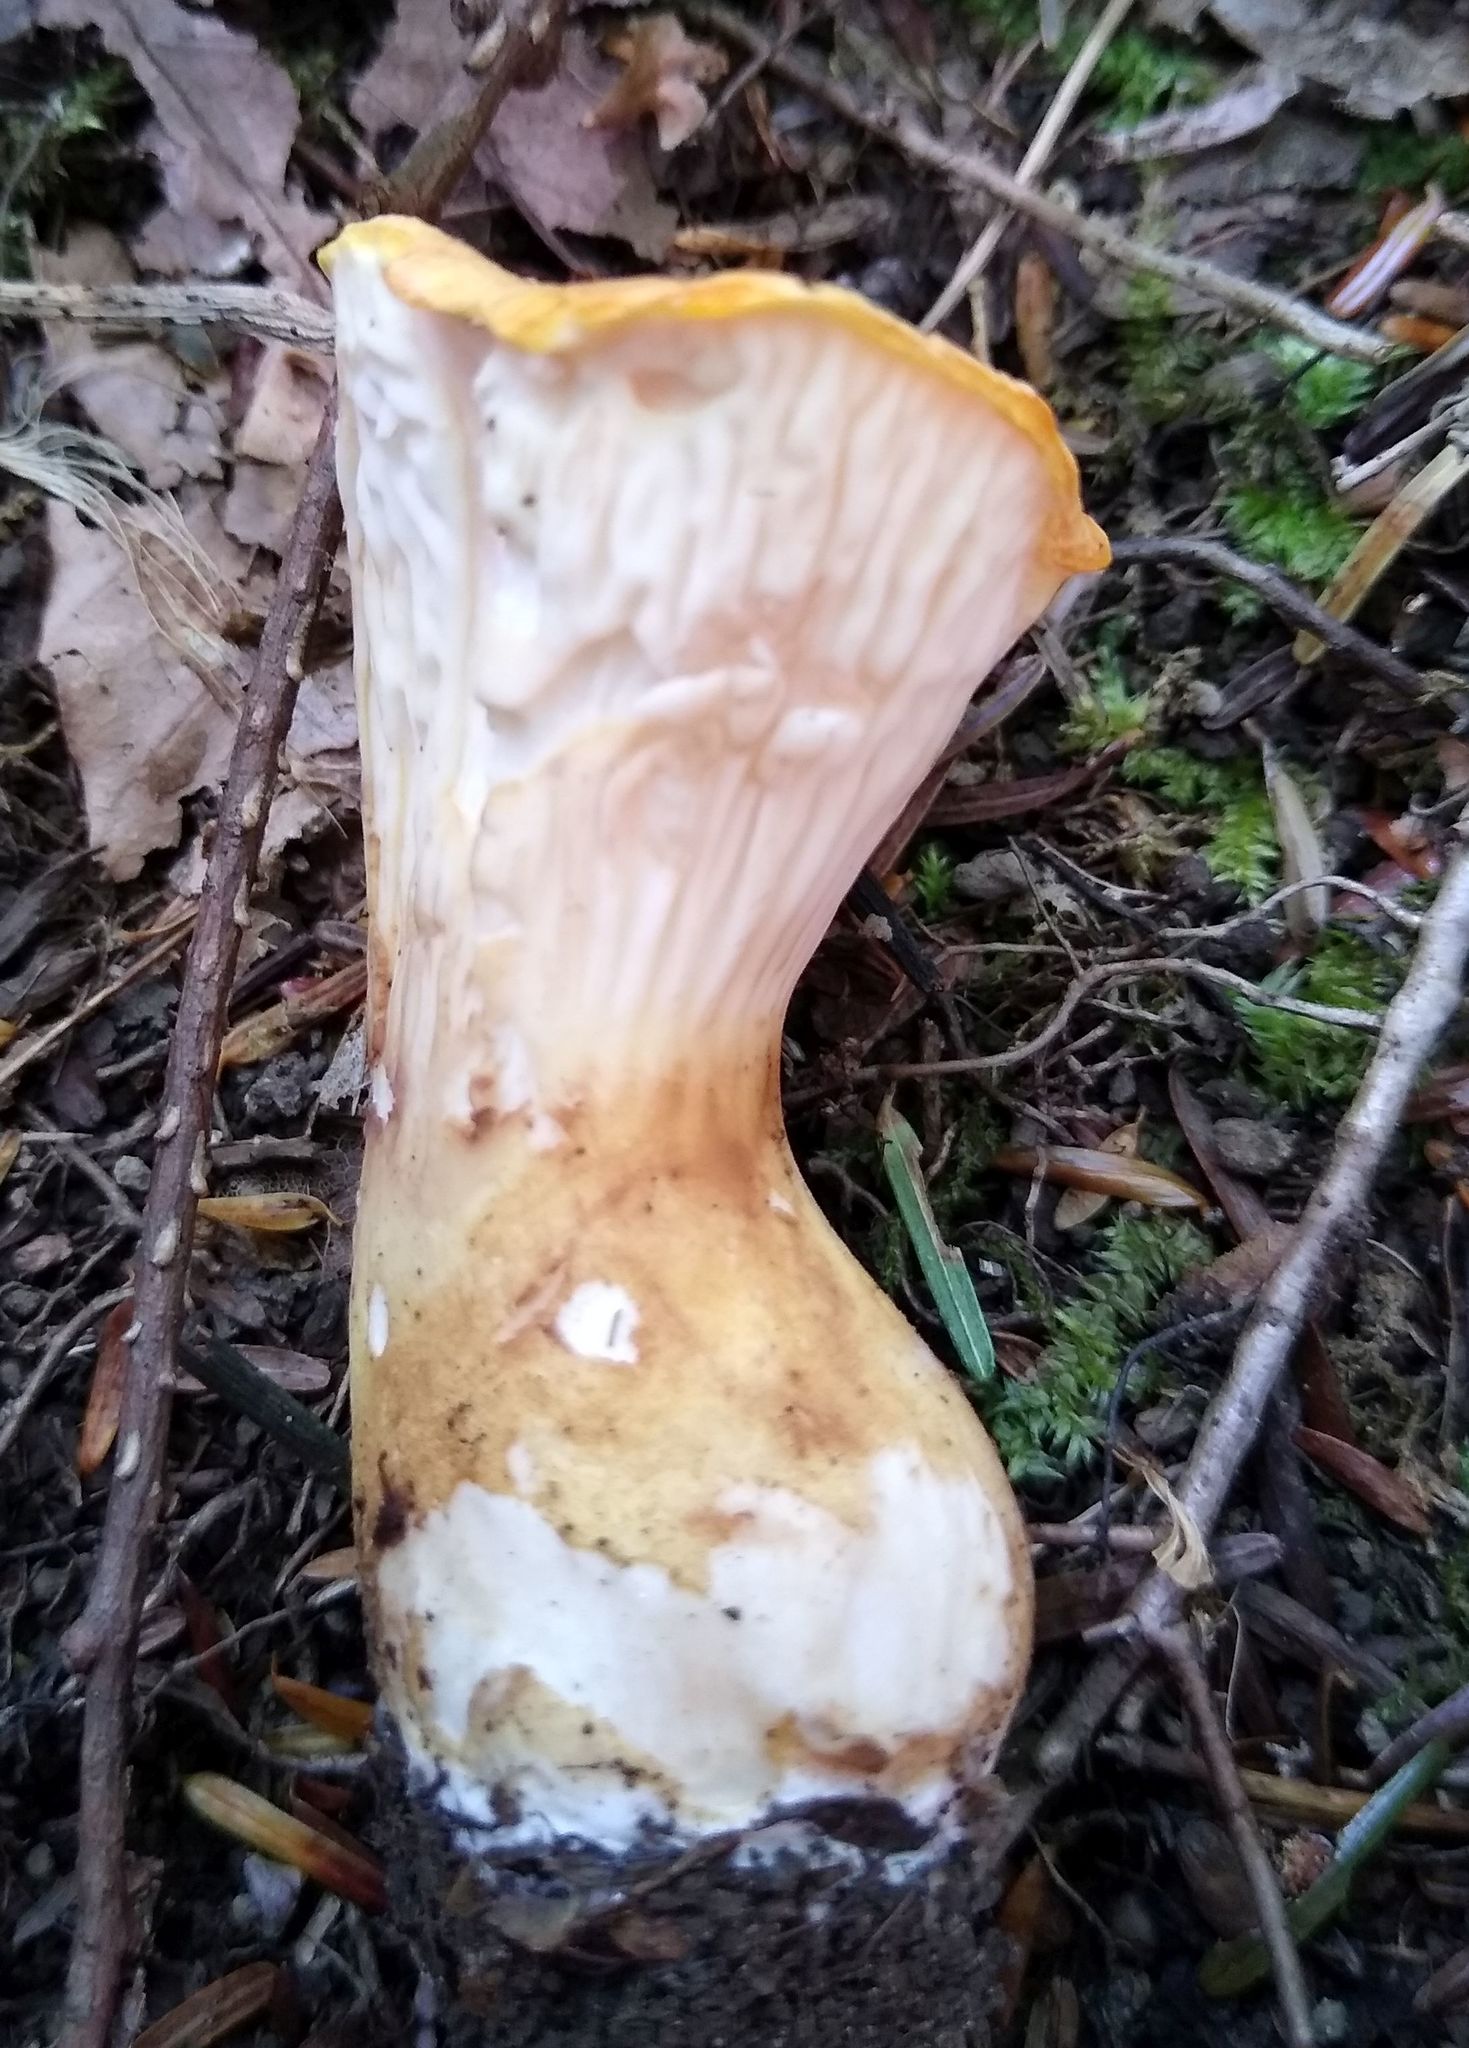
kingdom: Fungi
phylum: Basidiomycota
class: Agaricomycetes
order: Gomphales
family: Gomphaceae
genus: Turbinellus
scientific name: Turbinellus floccosus
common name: Scaly chanterelle
